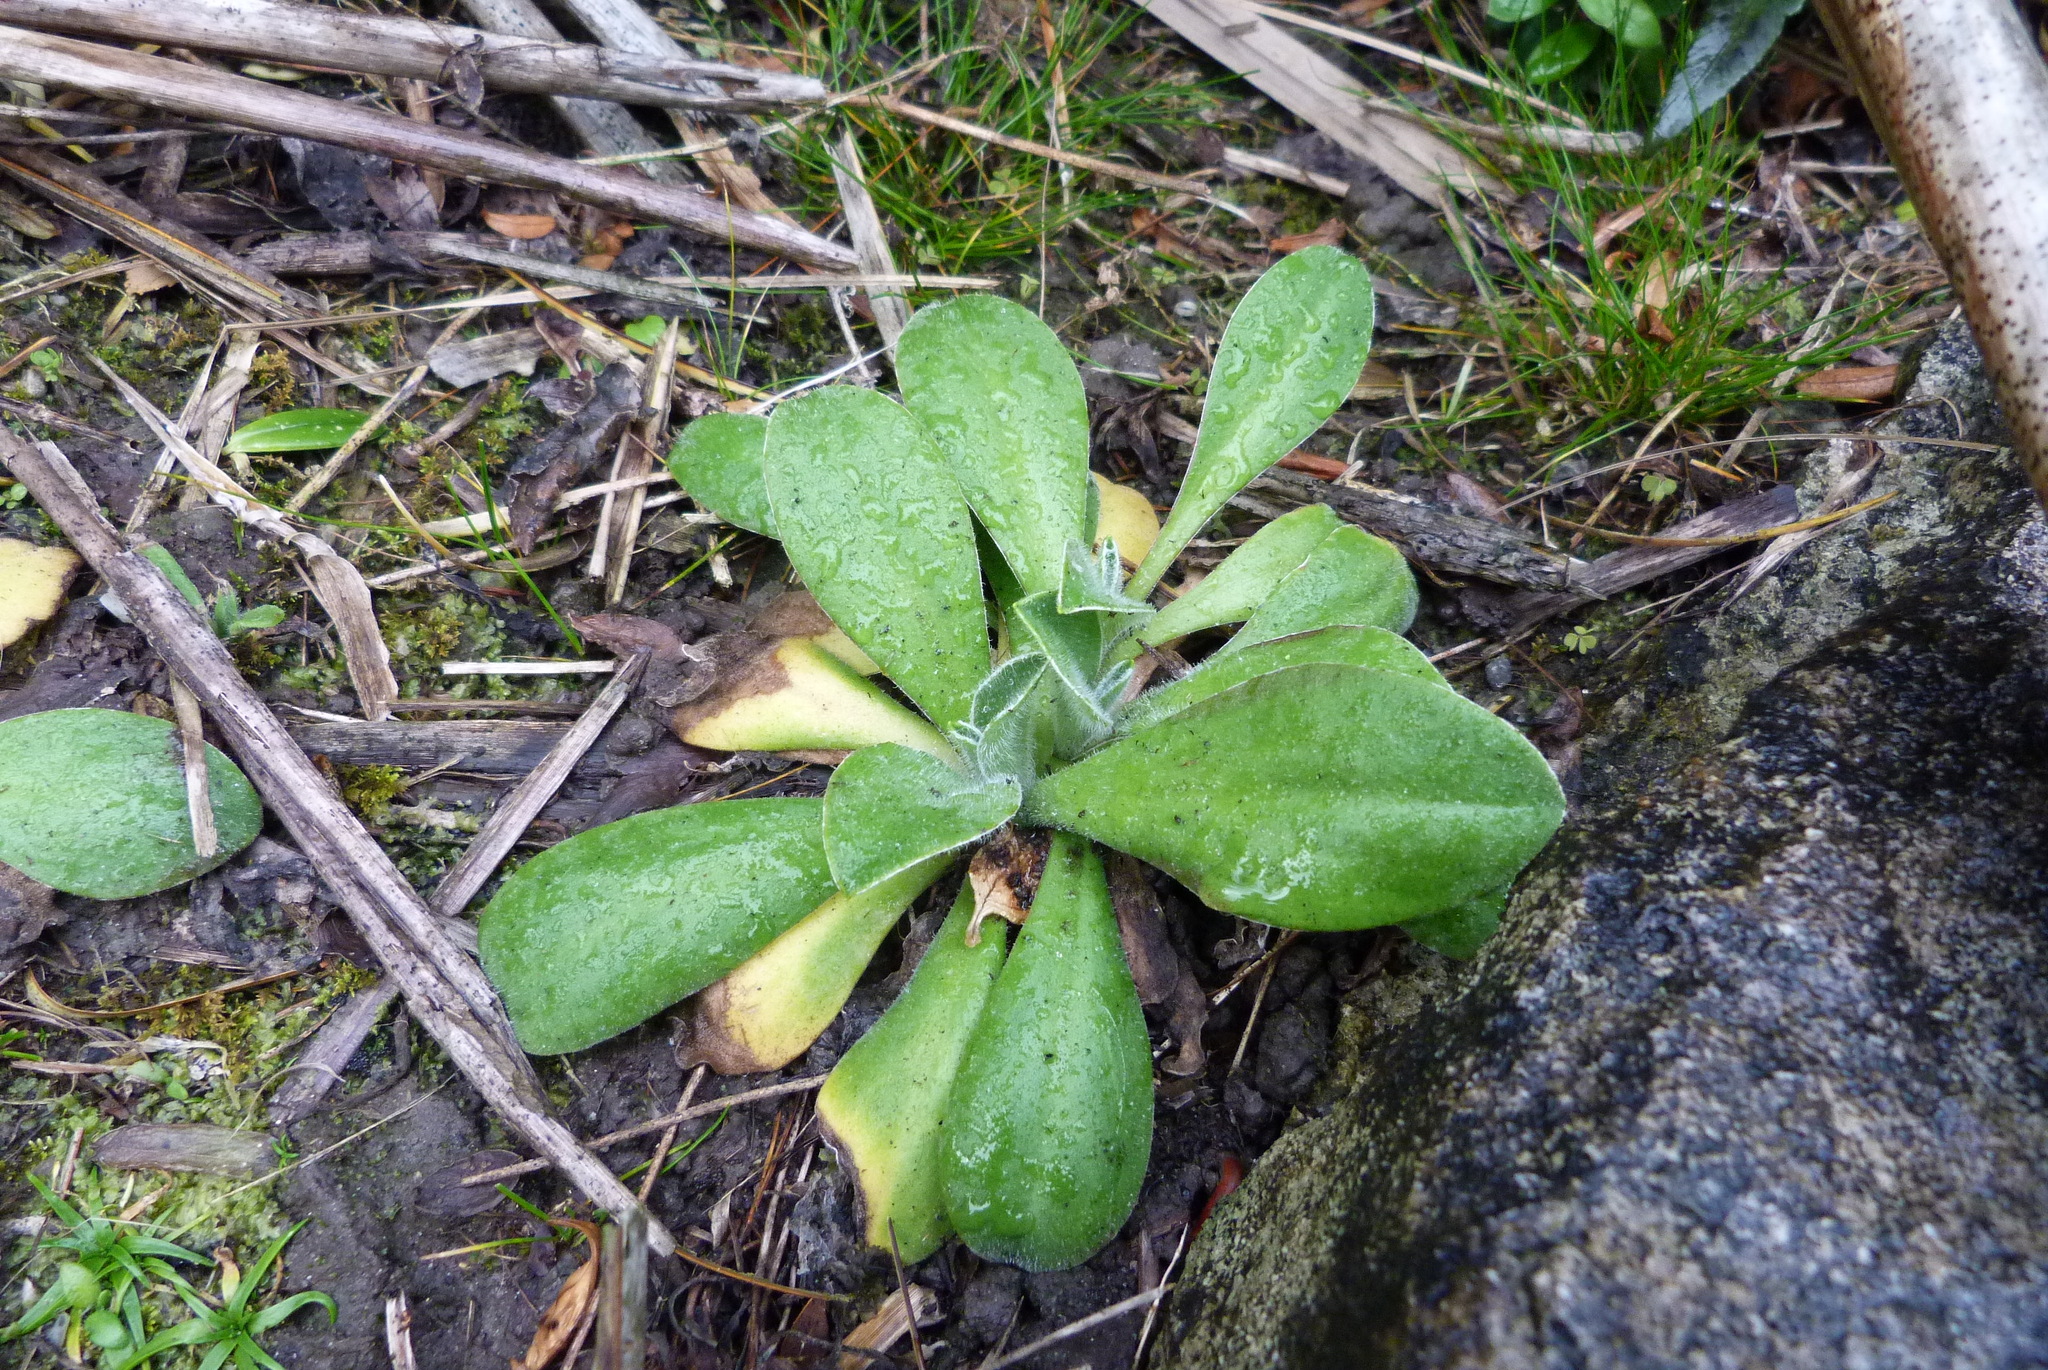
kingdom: Plantae
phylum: Tracheophyta
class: Magnoliopsida
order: Asterales
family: Asteraceae
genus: Craspedia
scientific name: Craspedia
